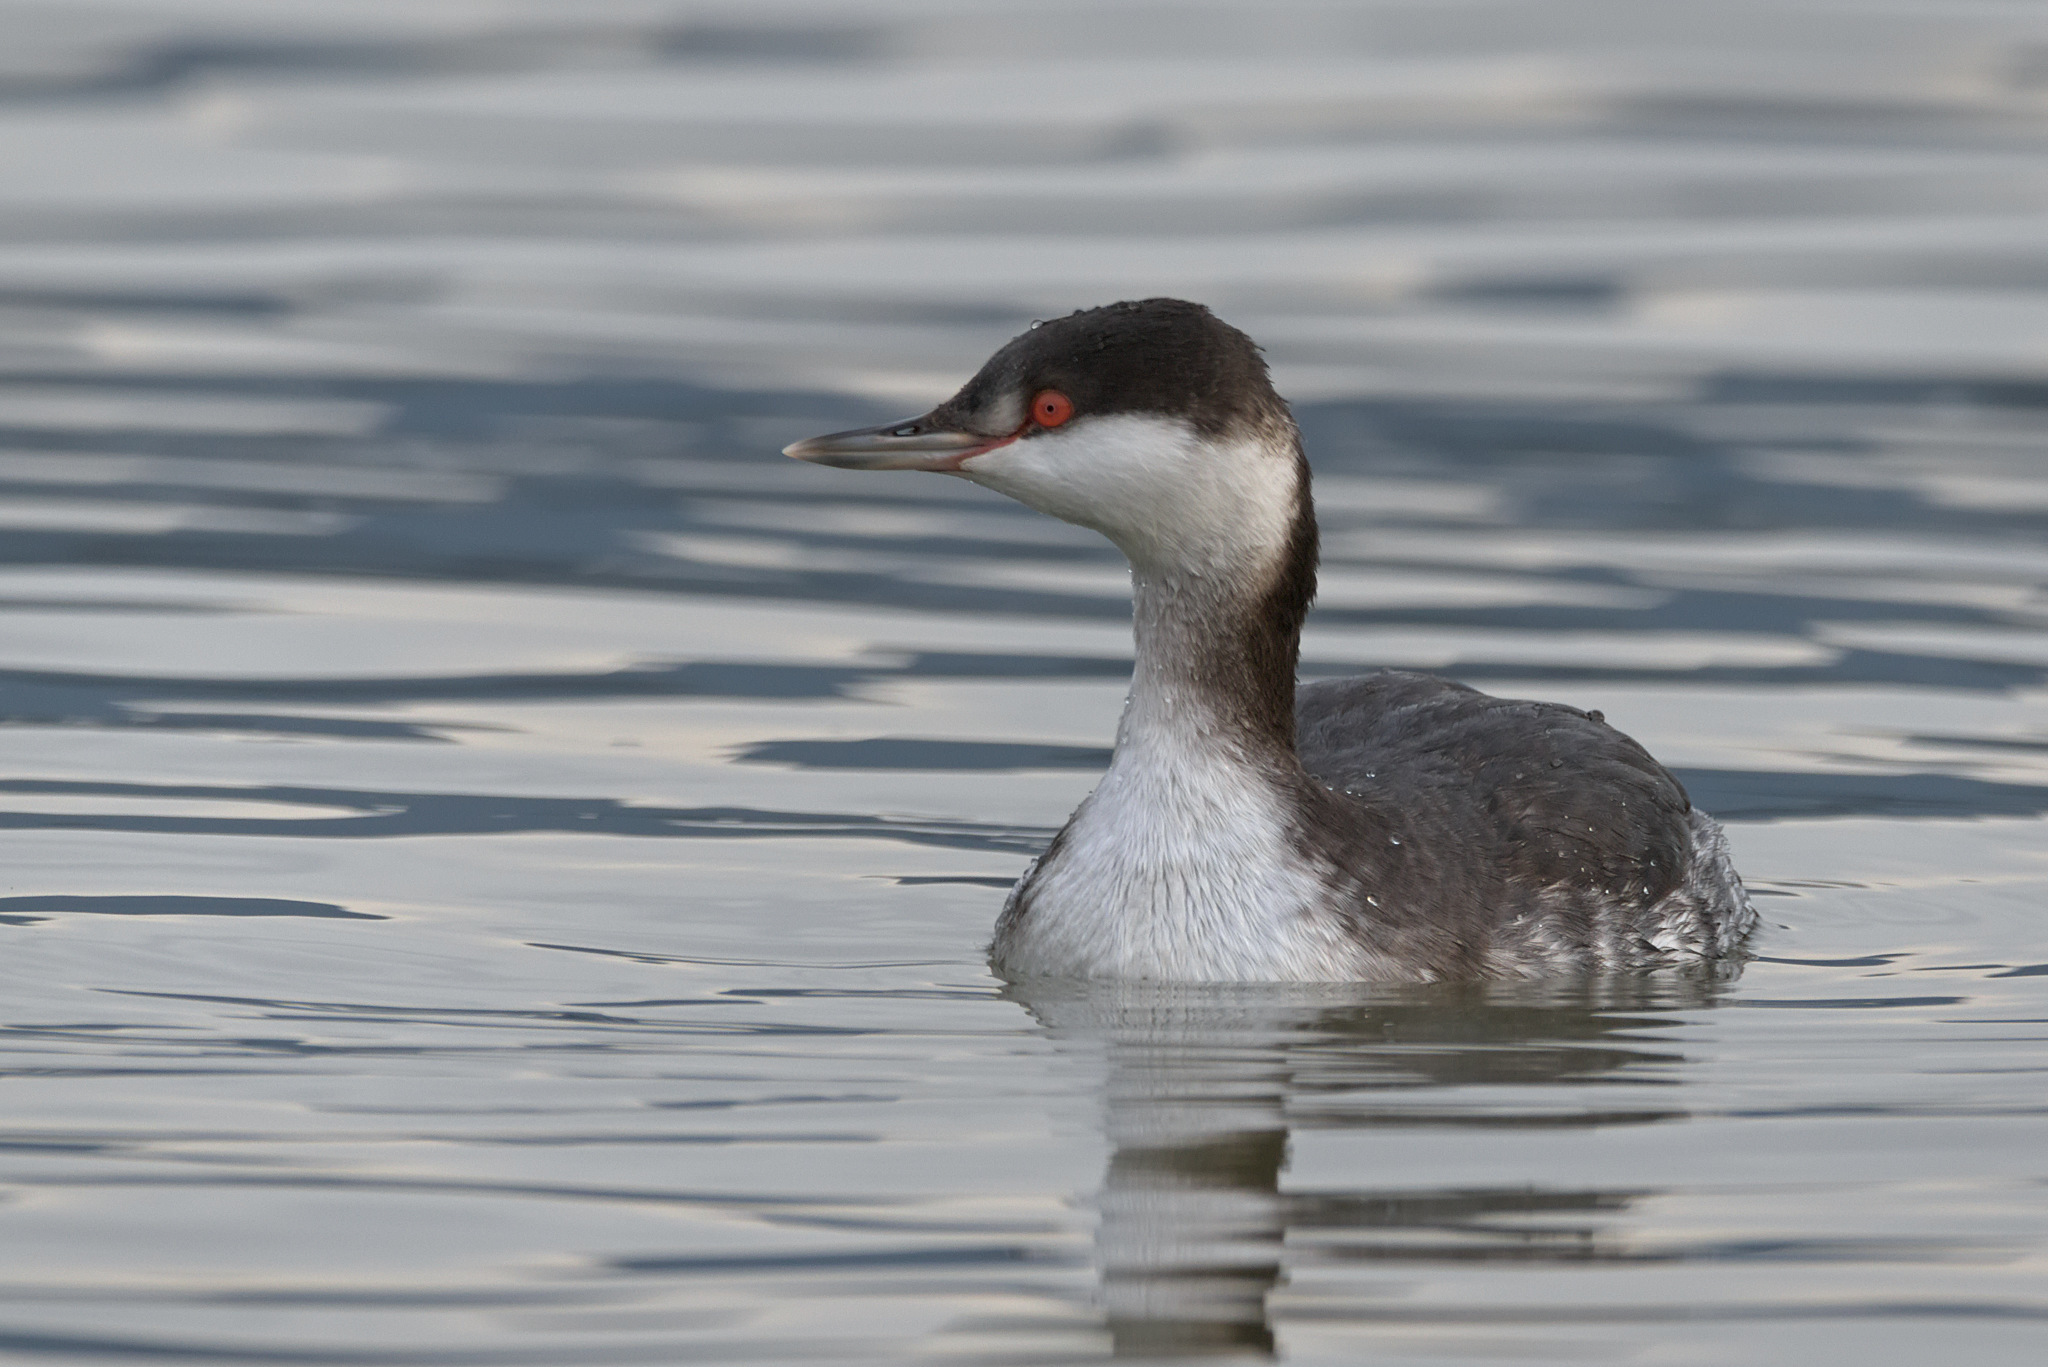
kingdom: Animalia
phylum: Chordata
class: Aves
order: Podicipediformes
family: Podicipedidae
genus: Podiceps
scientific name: Podiceps auritus
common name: Horned grebe
